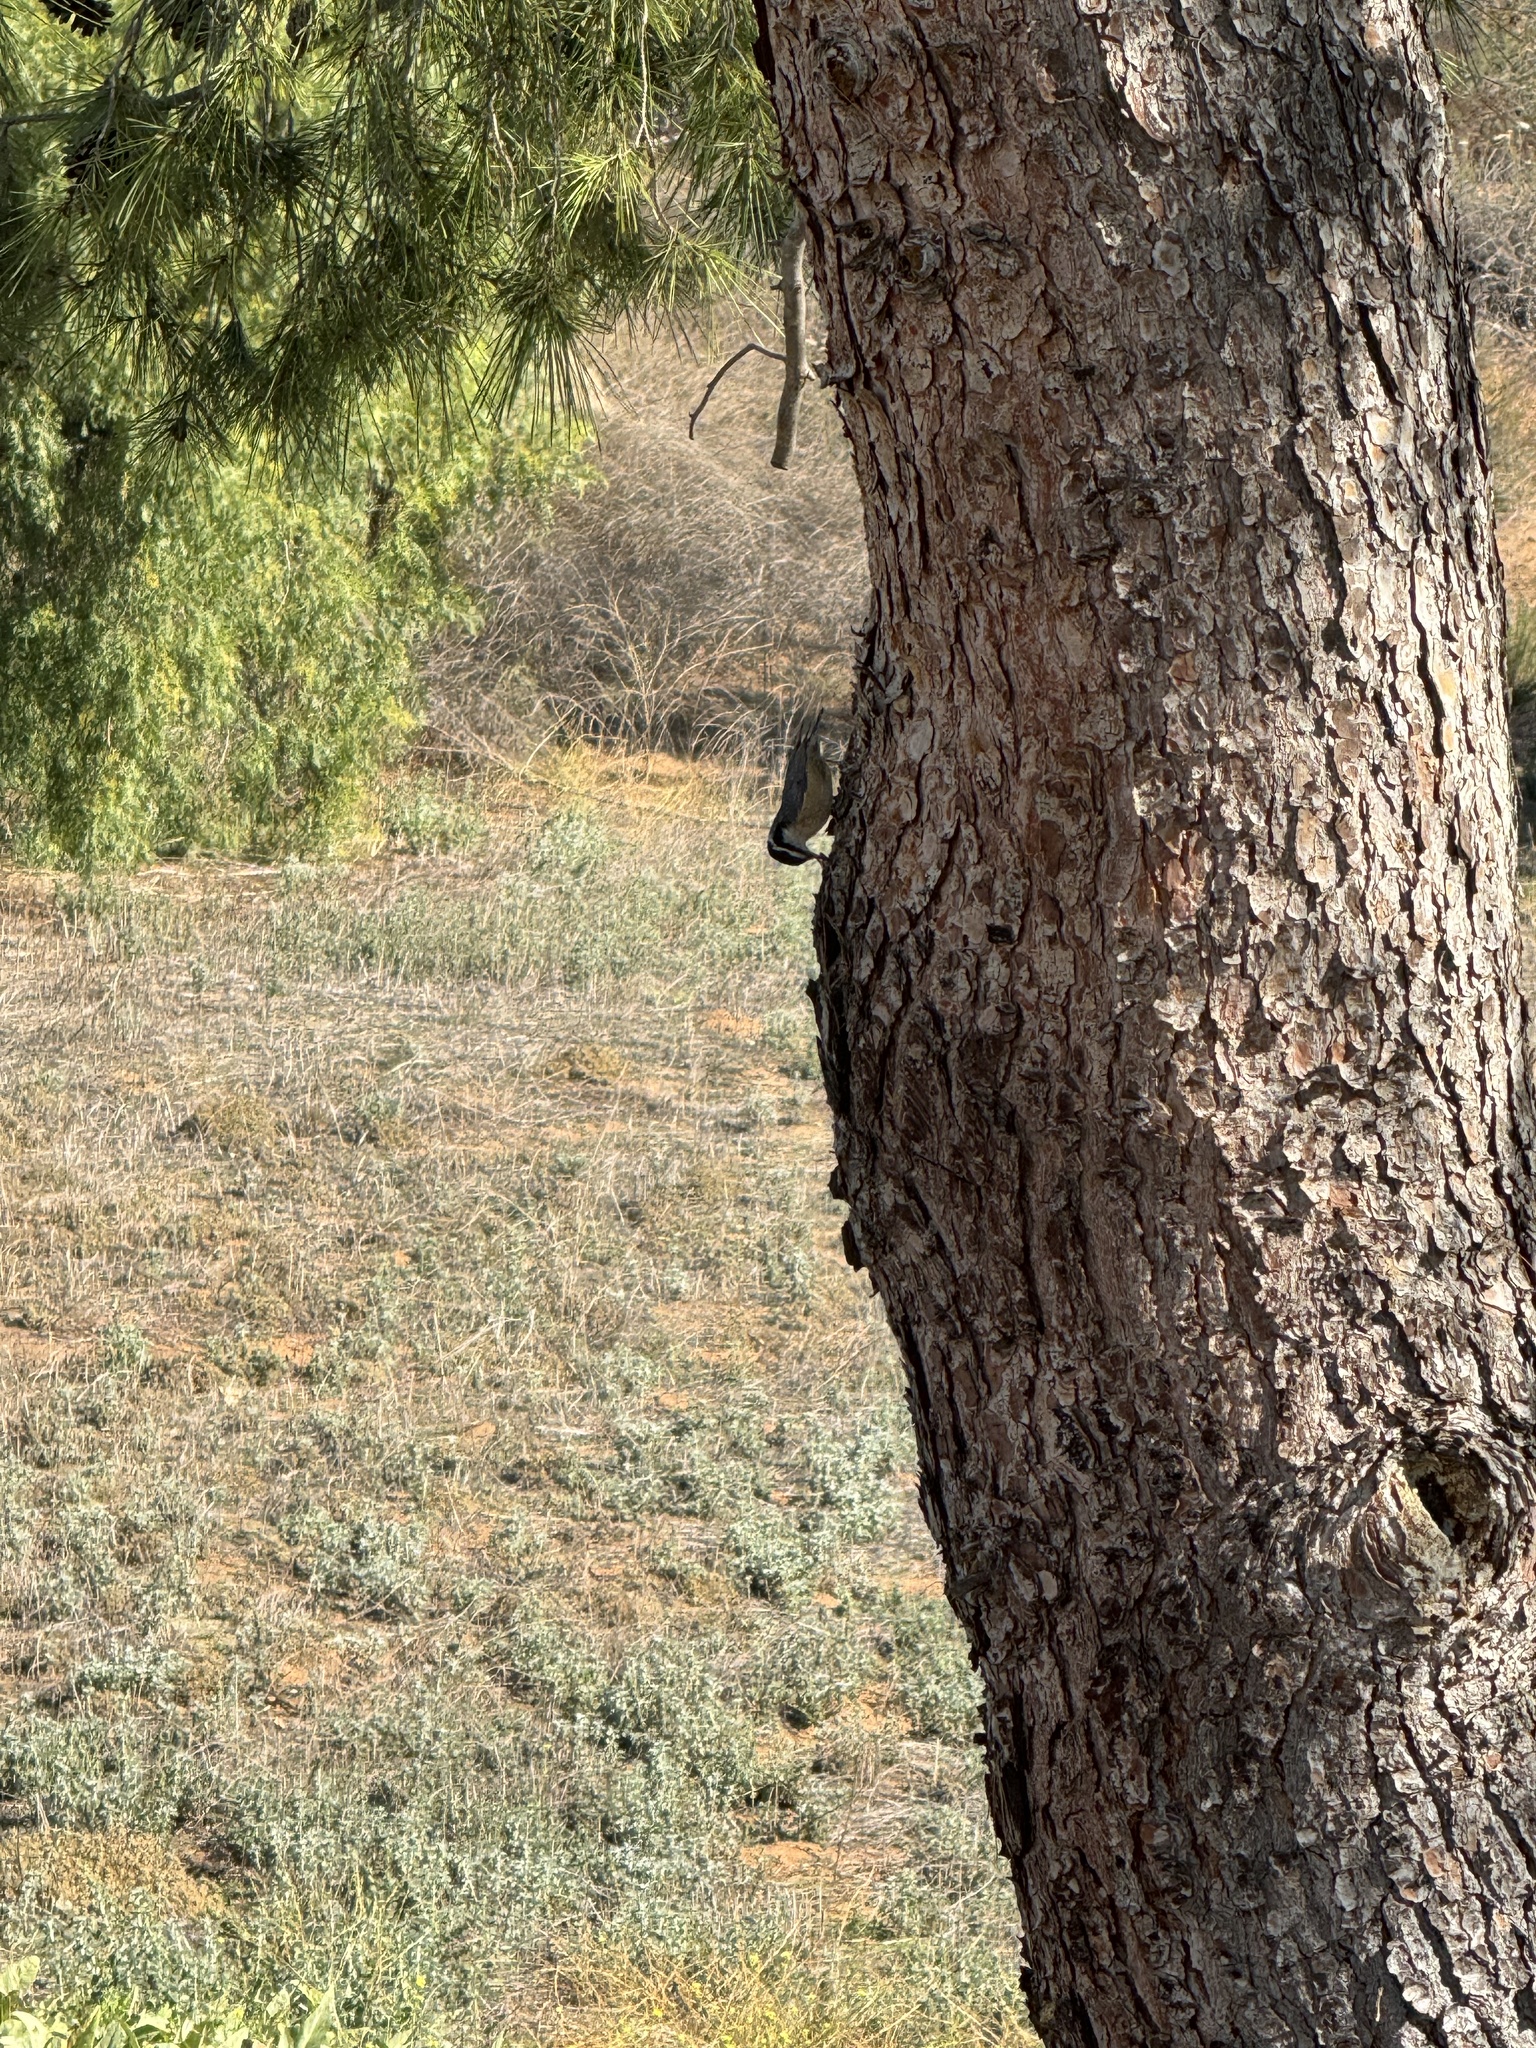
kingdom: Animalia
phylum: Chordata
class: Aves
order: Passeriformes
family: Sittidae
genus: Sitta
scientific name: Sitta canadensis
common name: Red-breasted nuthatch
